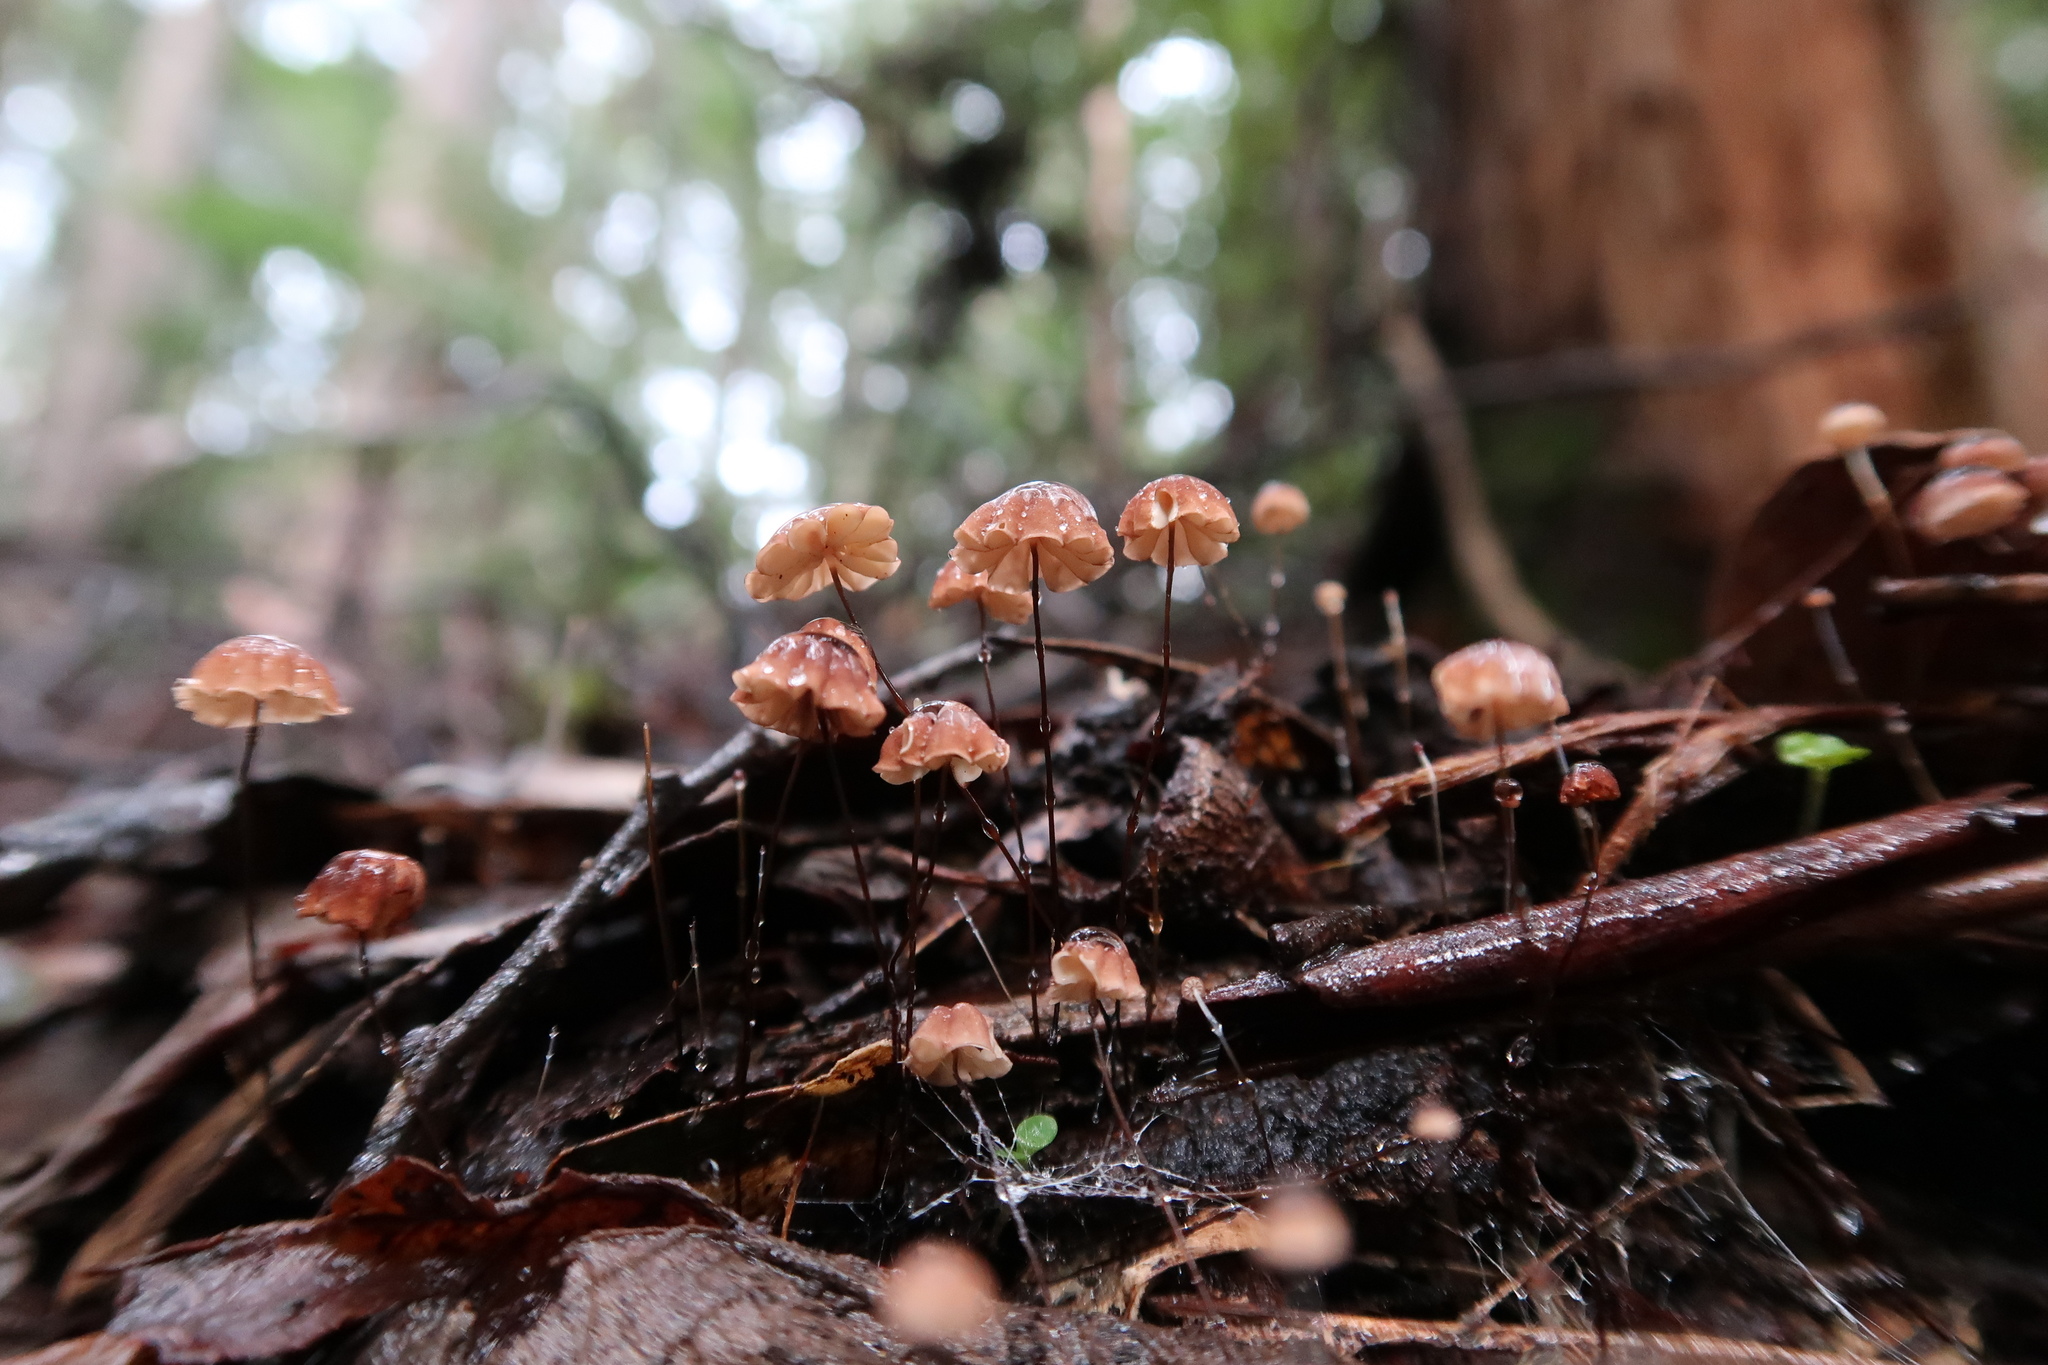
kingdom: Fungi
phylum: Basidiomycota
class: Agaricomycetes
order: Agaricales
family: Marasmiaceae
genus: Marasmius
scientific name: Marasmius crinis-equi
